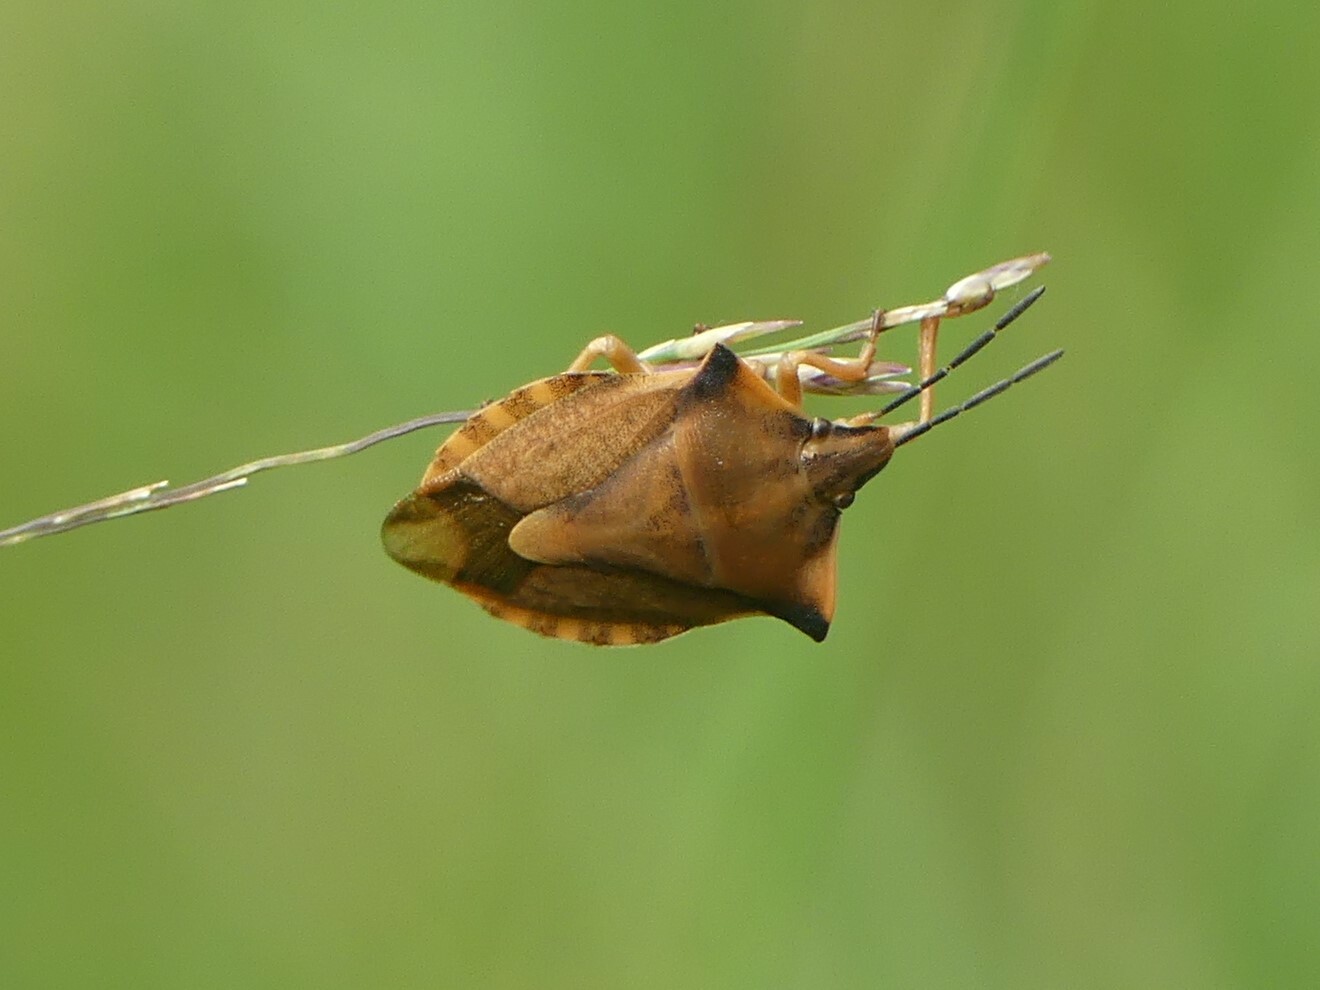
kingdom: Animalia
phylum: Arthropoda
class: Insecta
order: Hemiptera
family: Pentatomidae
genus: Carpocoris
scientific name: Carpocoris fuscispinus
